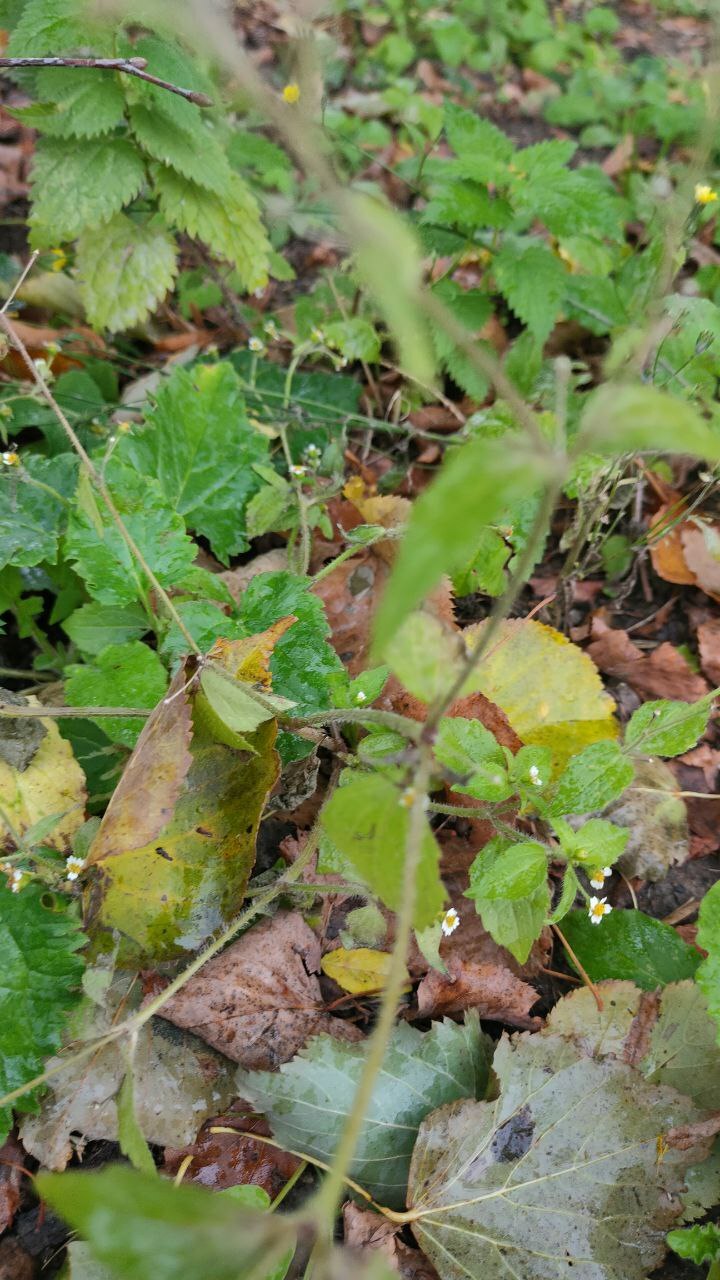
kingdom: Plantae
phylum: Tracheophyta
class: Magnoliopsida
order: Asterales
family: Asteraceae
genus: Galinsoga
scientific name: Galinsoga quadriradiata
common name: Shaggy soldier
